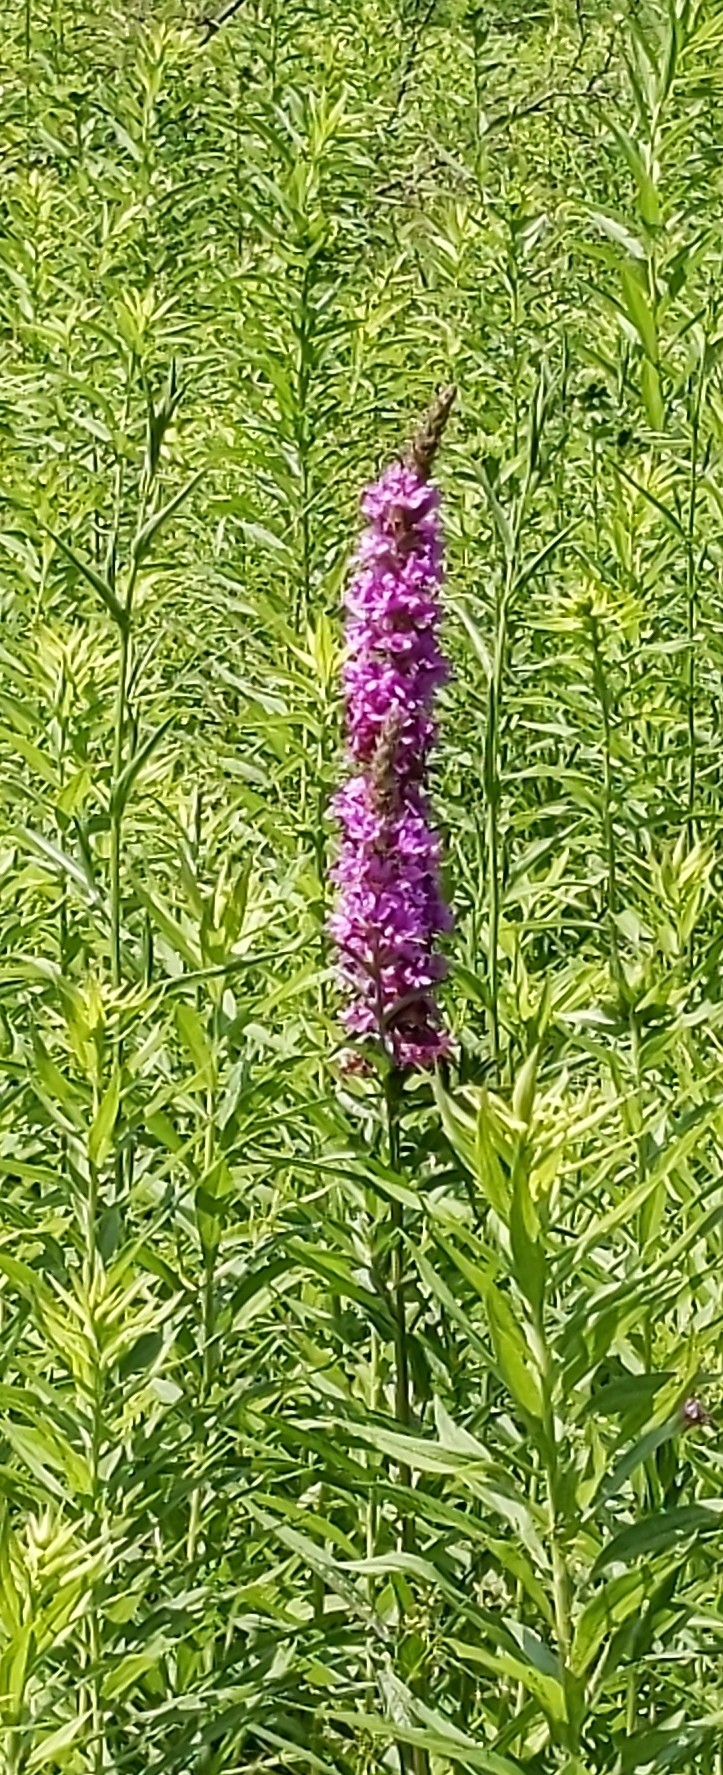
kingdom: Plantae
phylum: Tracheophyta
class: Magnoliopsida
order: Myrtales
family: Lythraceae
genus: Lythrum
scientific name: Lythrum salicaria
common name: Purple loosestrife
